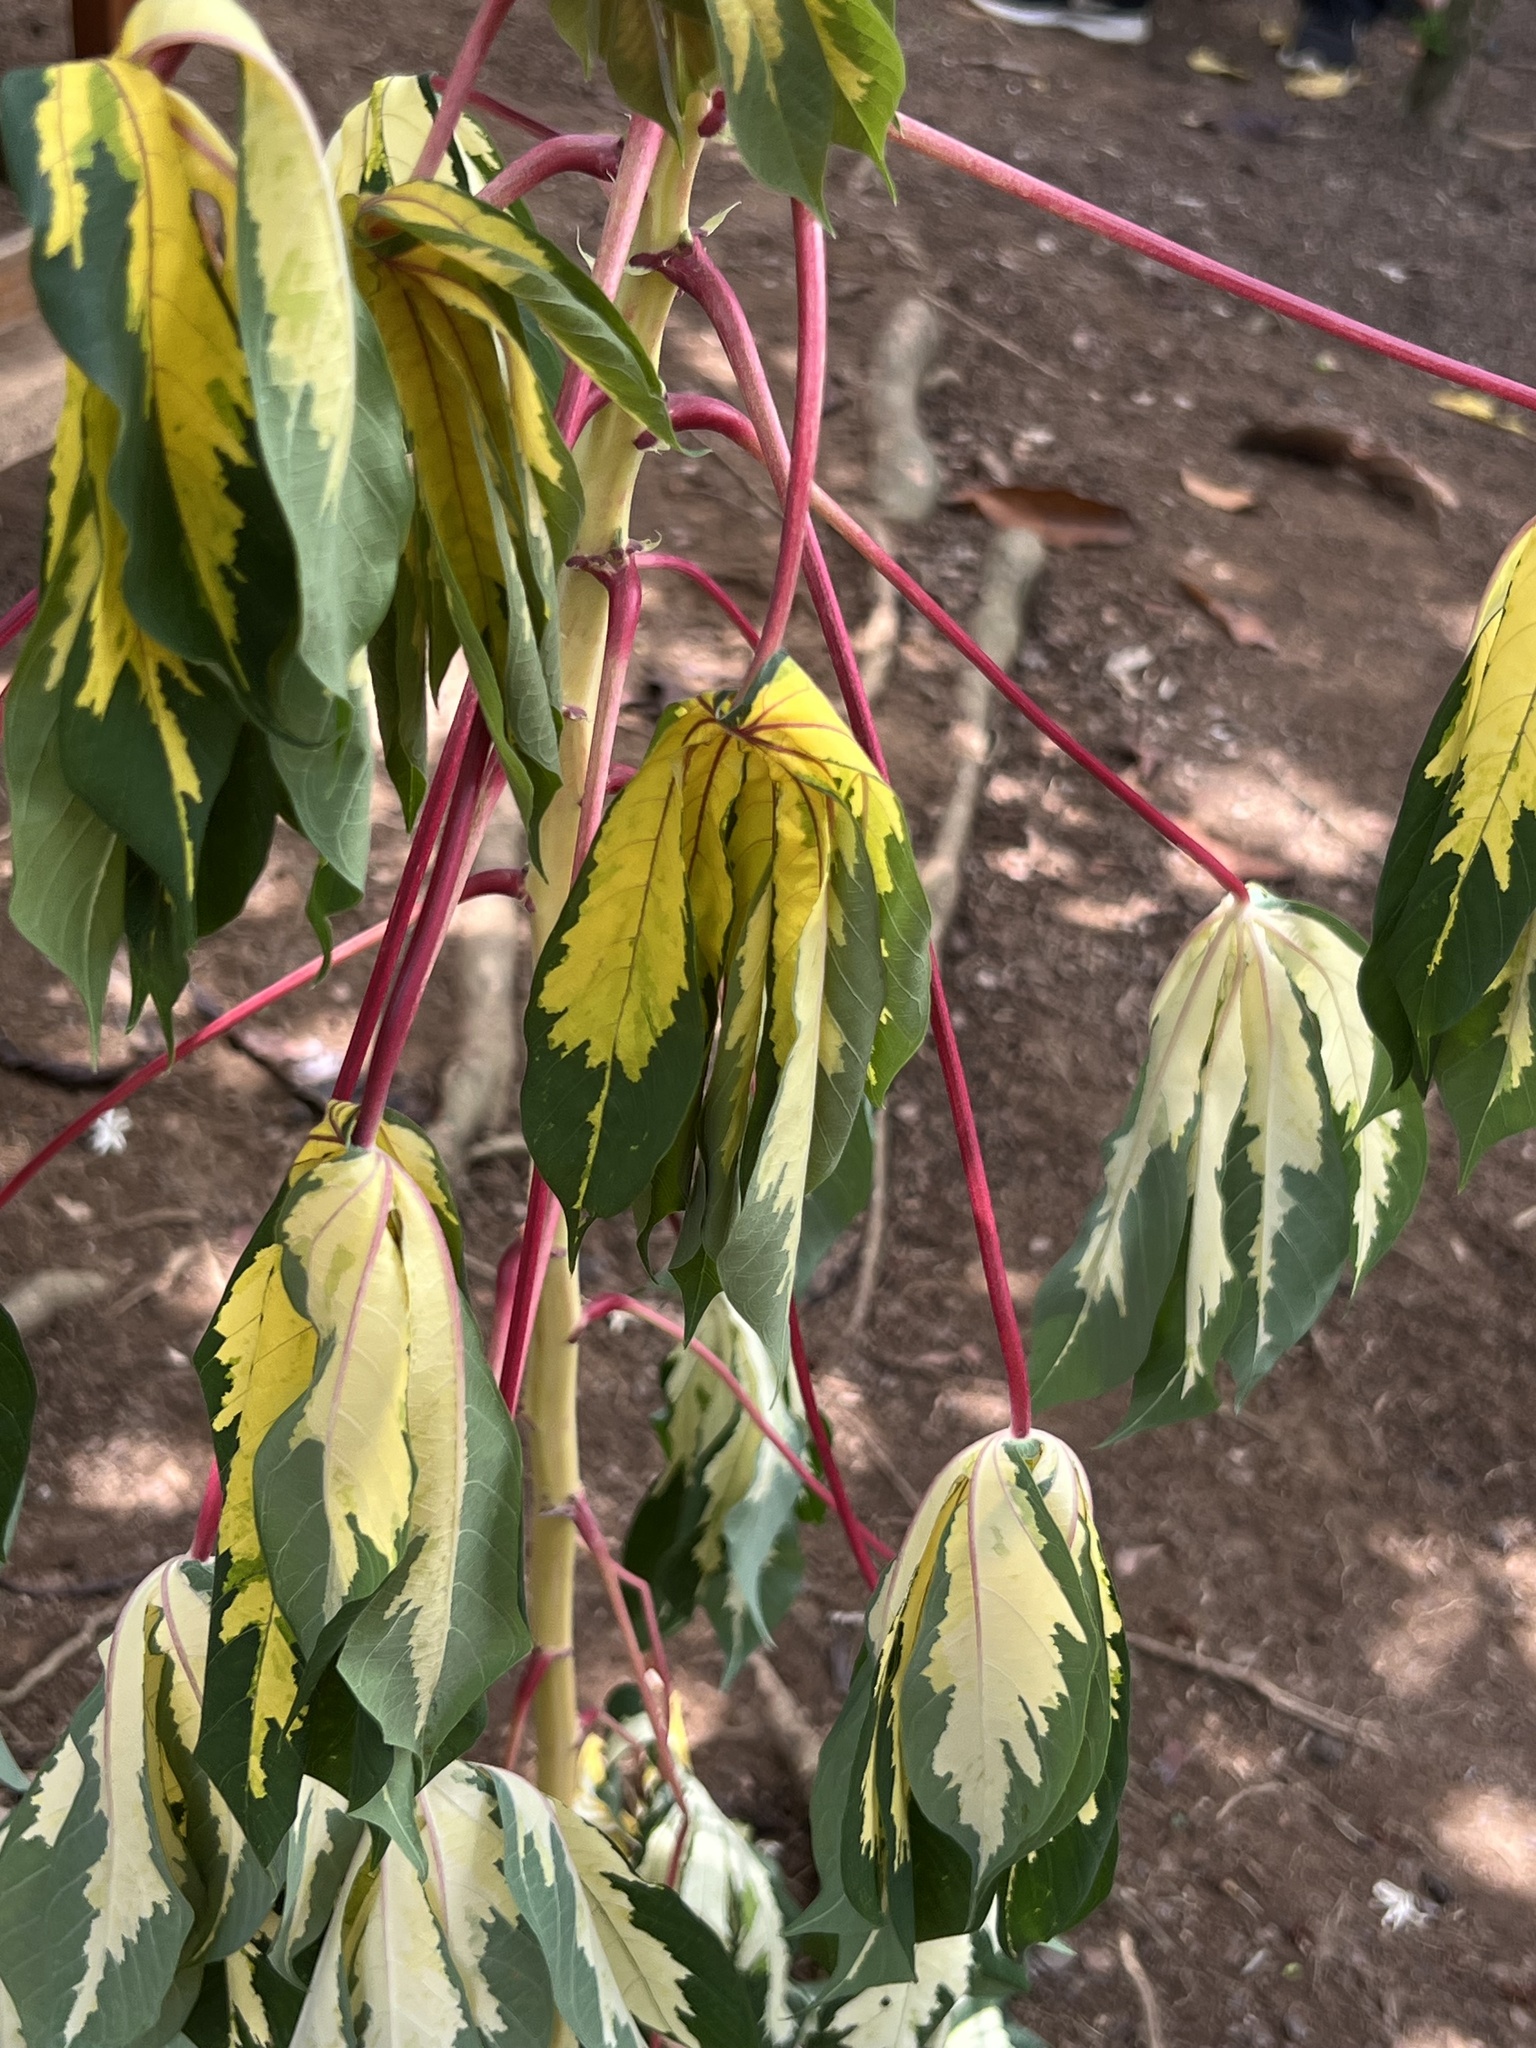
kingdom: Plantae
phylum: Tracheophyta
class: Magnoliopsida
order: Malpighiales
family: Euphorbiaceae
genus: Manihot
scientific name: Manihot esculenta
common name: Cassava
